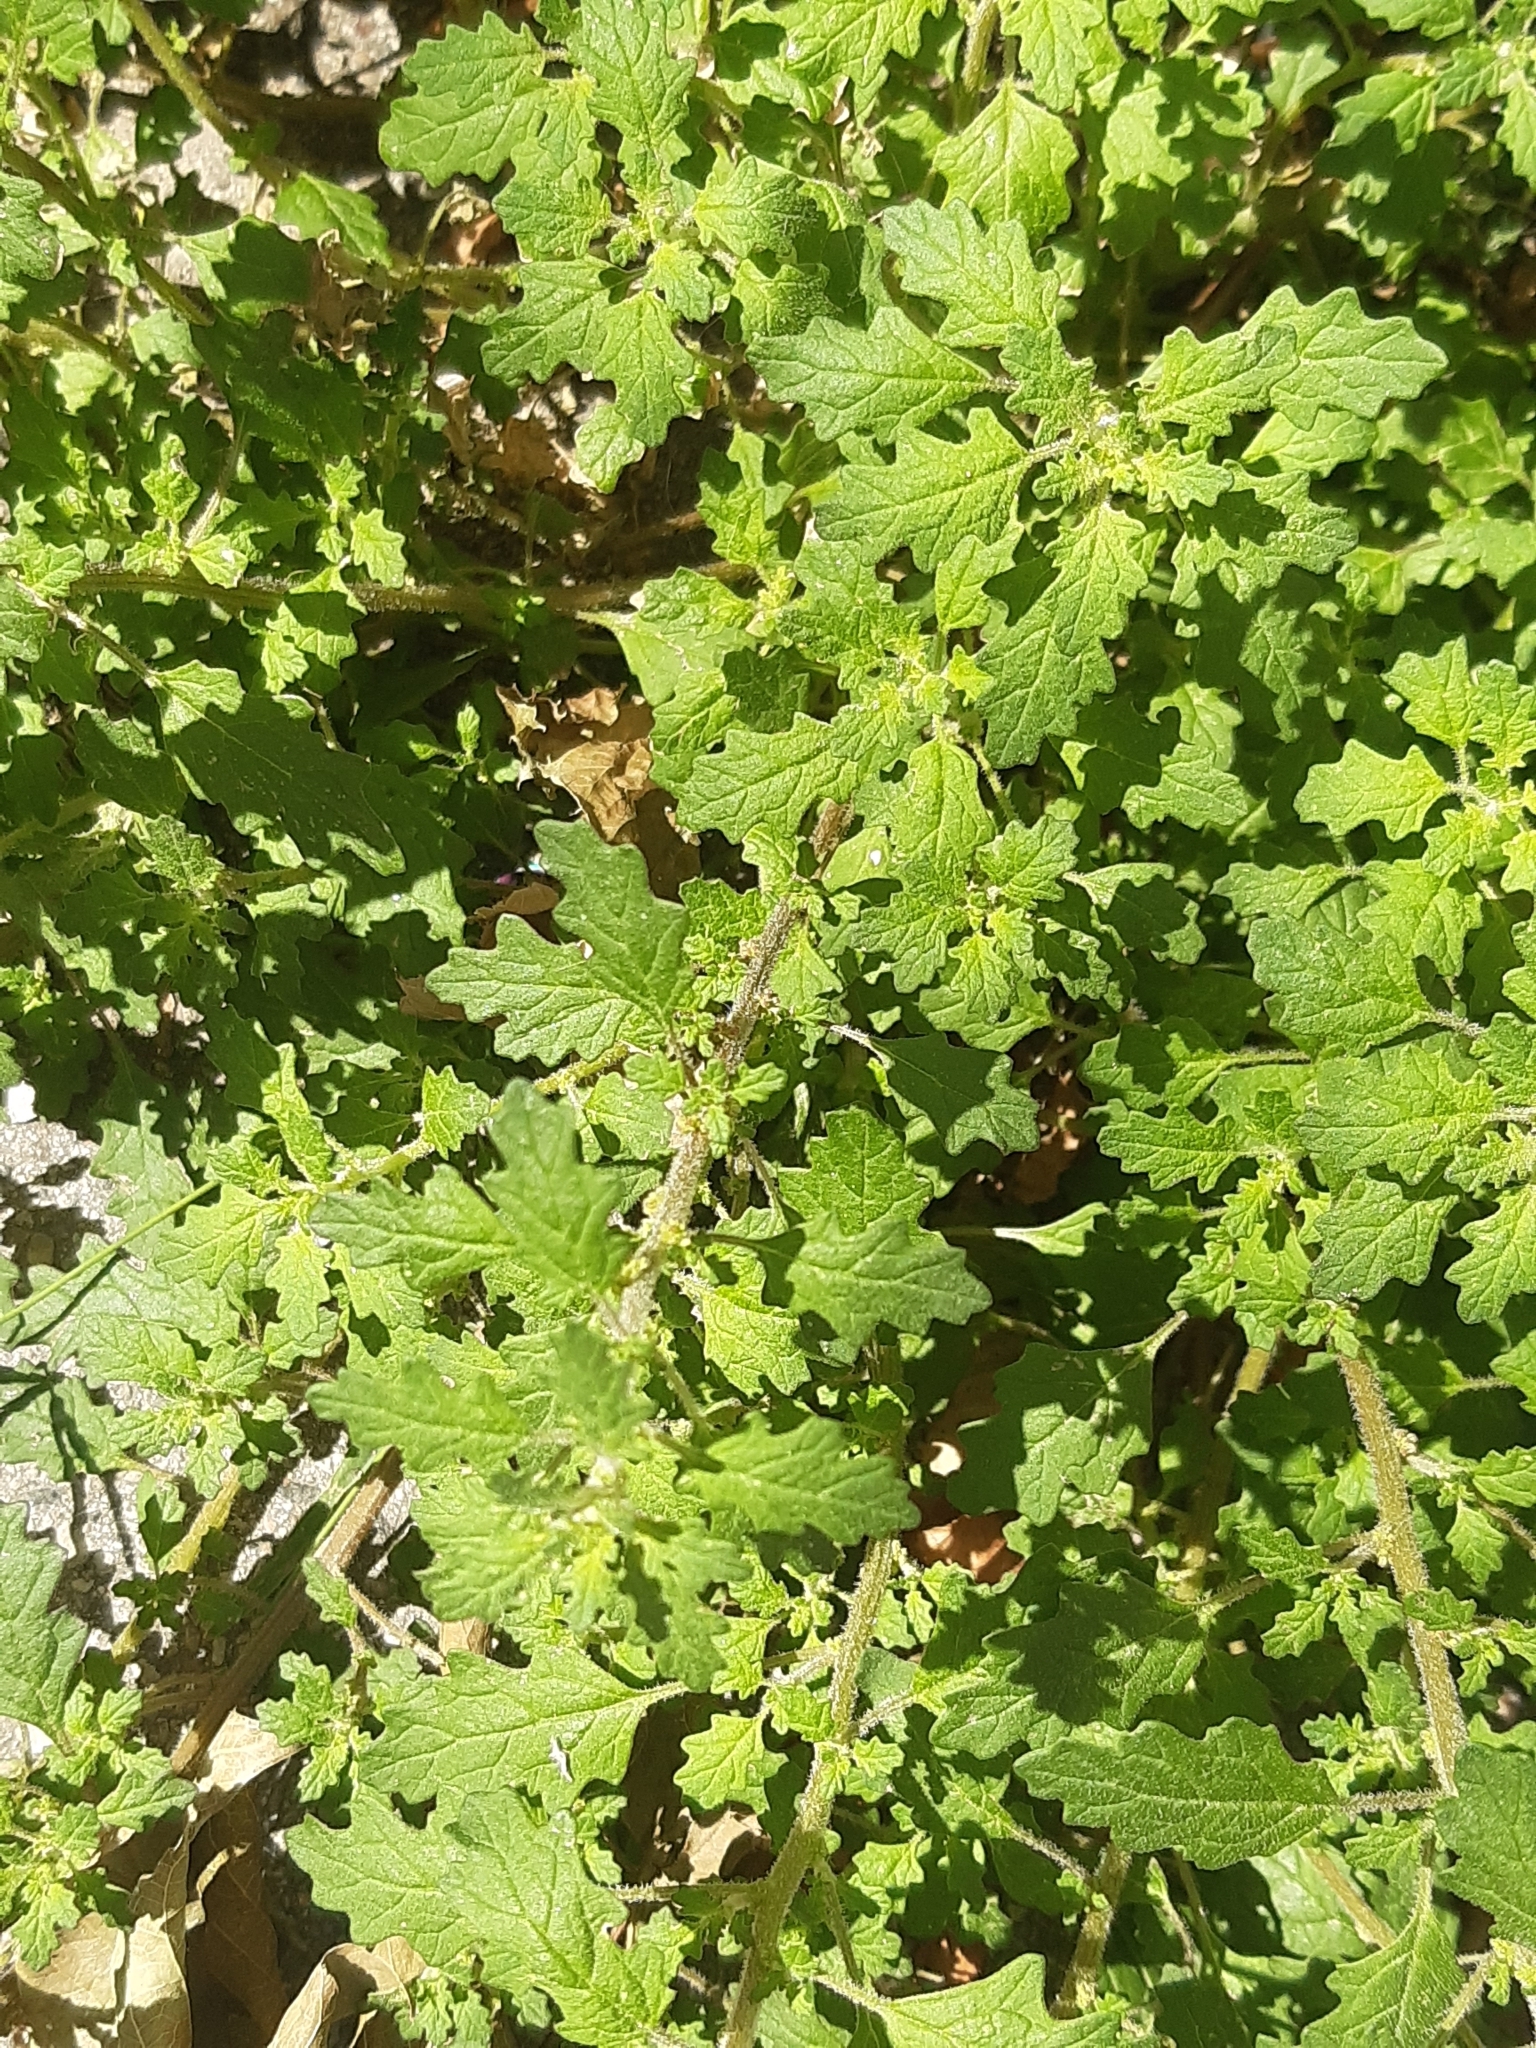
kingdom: Plantae
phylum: Tracheophyta
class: Magnoliopsida
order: Caryophyllales
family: Amaranthaceae
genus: Dysphania
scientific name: Dysphania pumilio
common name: Clammy goosefoot
